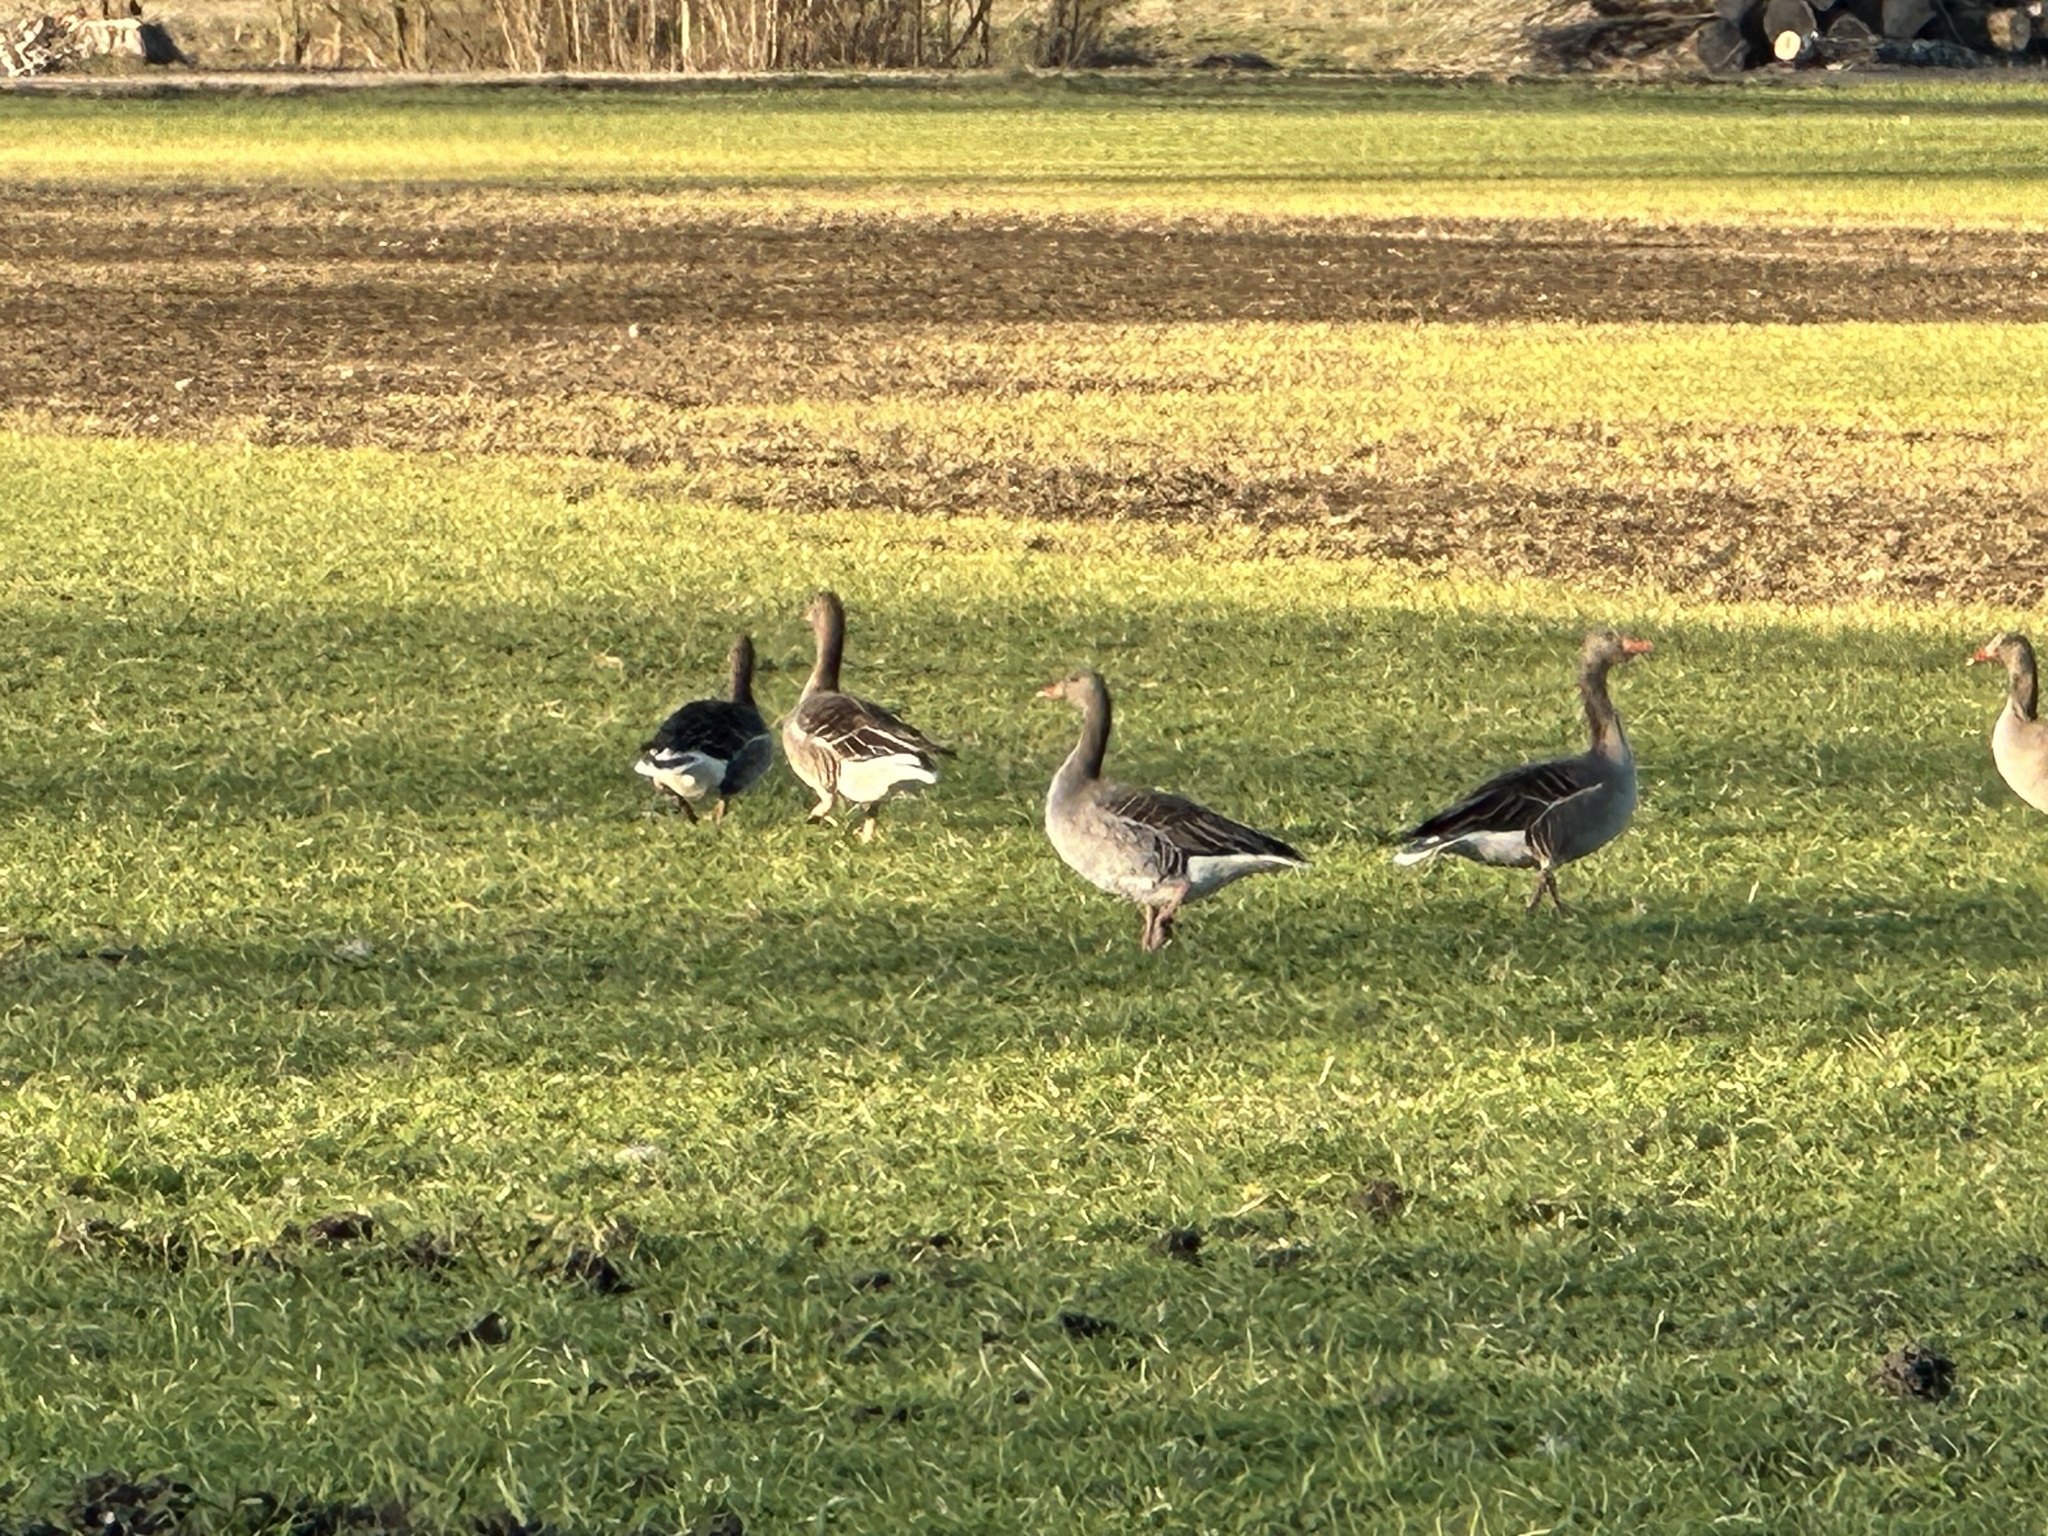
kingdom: Animalia
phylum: Chordata
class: Aves
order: Anseriformes
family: Anatidae
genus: Anser
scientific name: Anser anser
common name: Greylag goose
